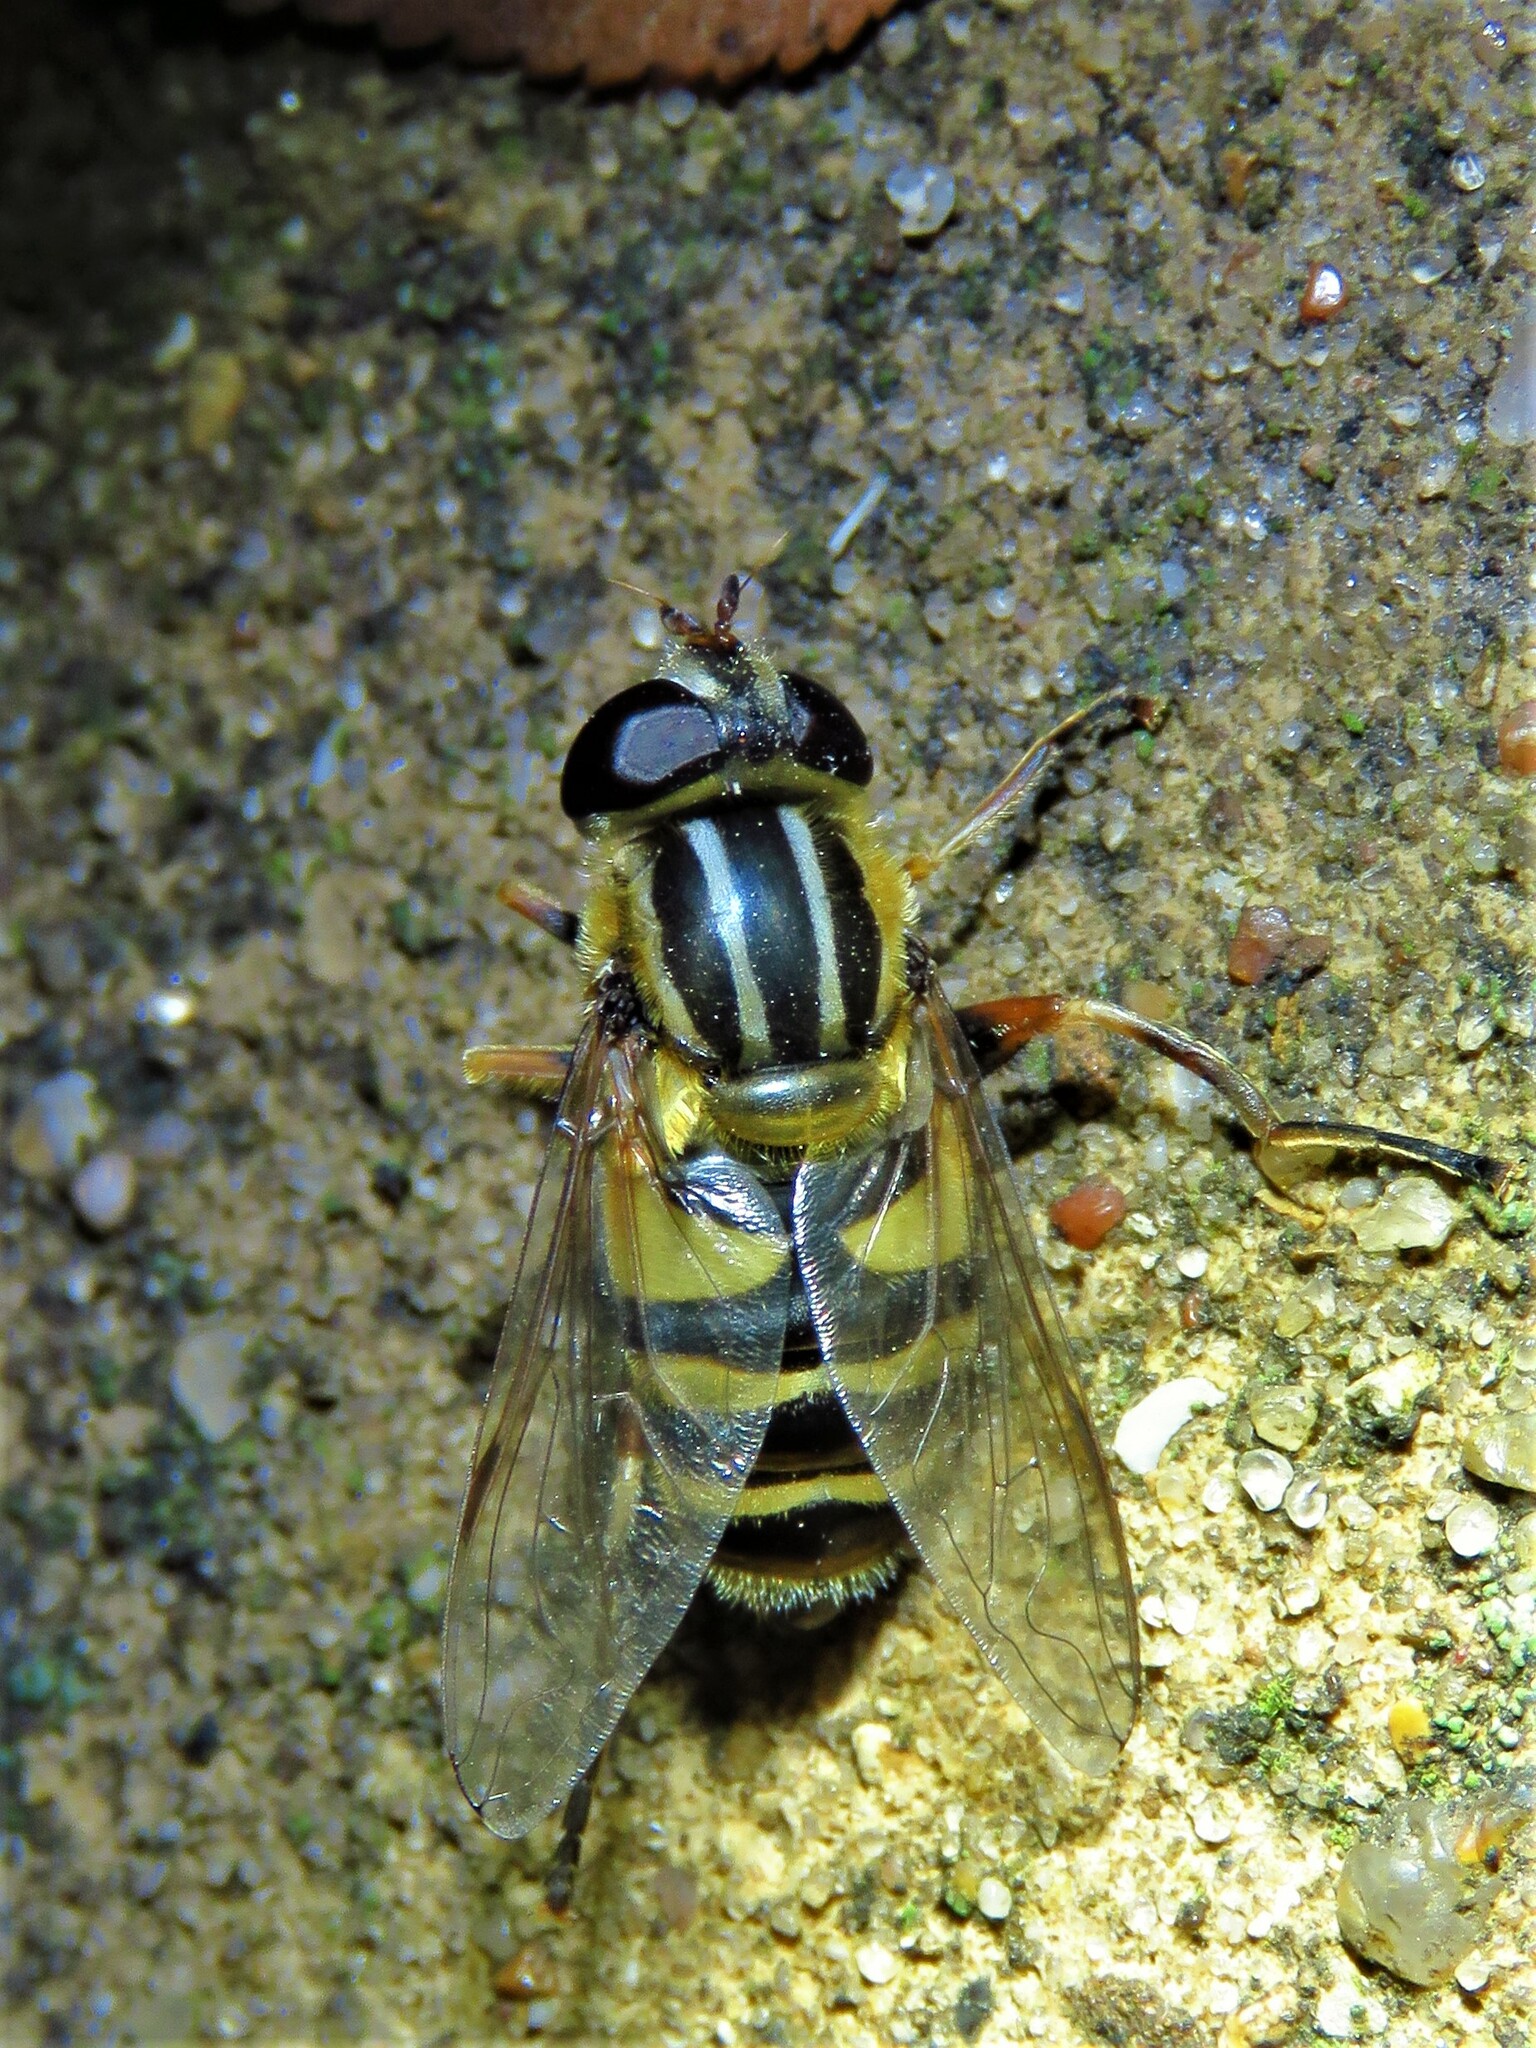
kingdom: Animalia
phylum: Arthropoda
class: Insecta
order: Diptera
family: Syrphidae
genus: Helophilus
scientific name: Helophilus fasciatus
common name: Narrow-headed marsh fly
